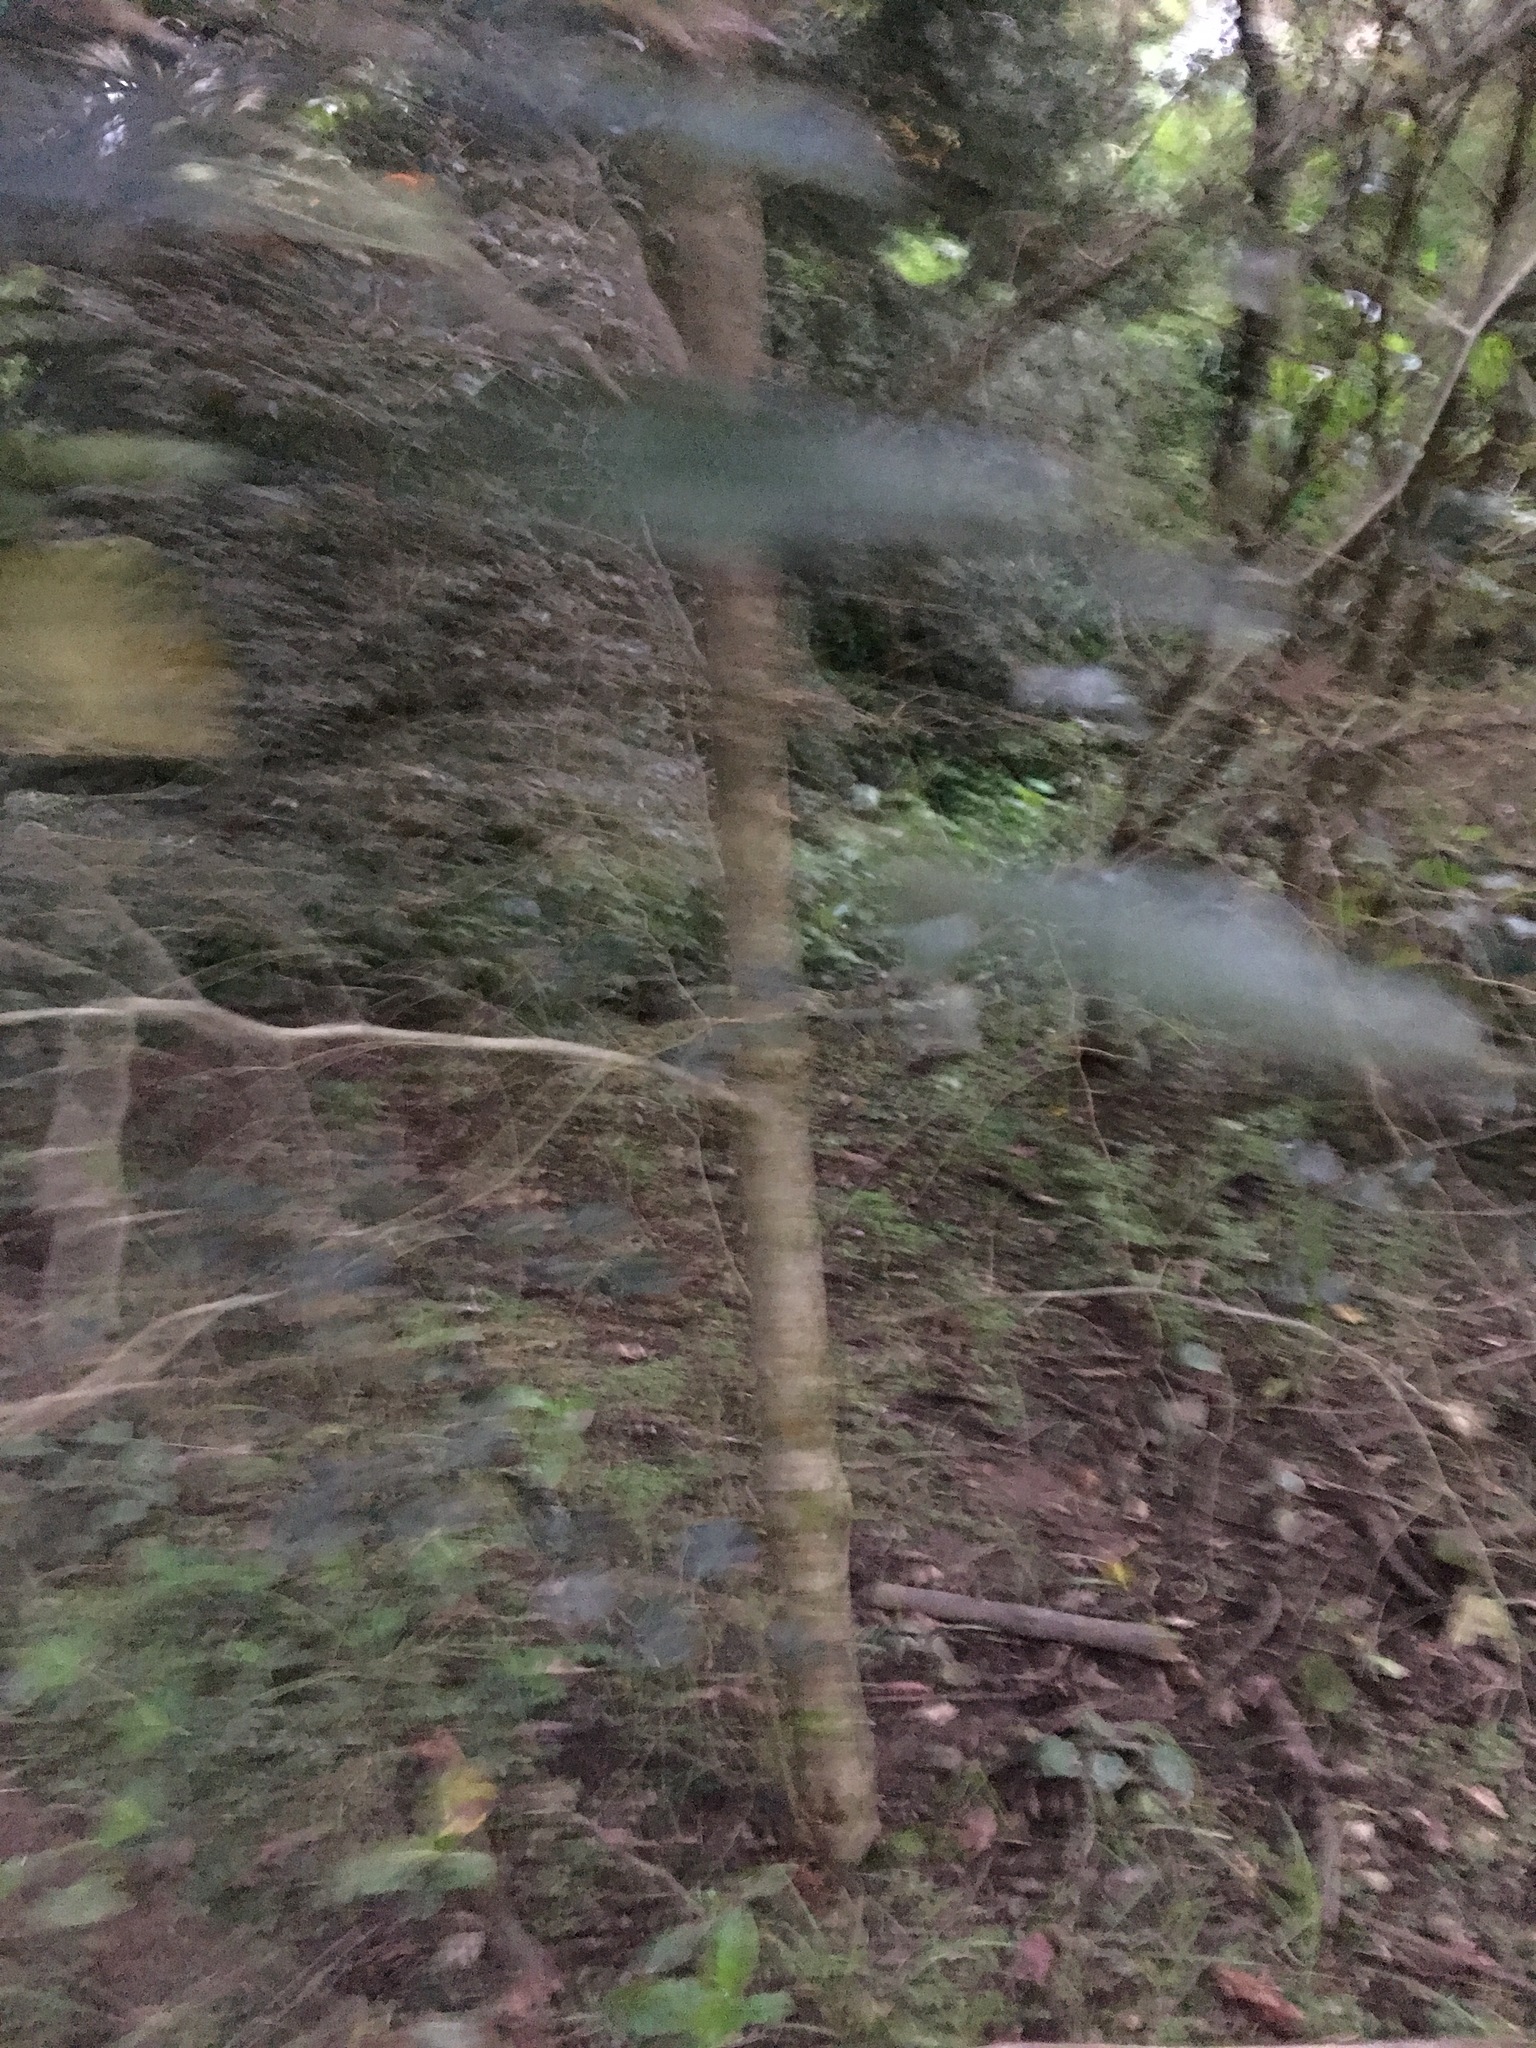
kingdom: Plantae
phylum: Tracheophyta
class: Magnoliopsida
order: Asterales
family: Rousseaceae
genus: Carpodetus
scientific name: Carpodetus serratus
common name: White mapau
